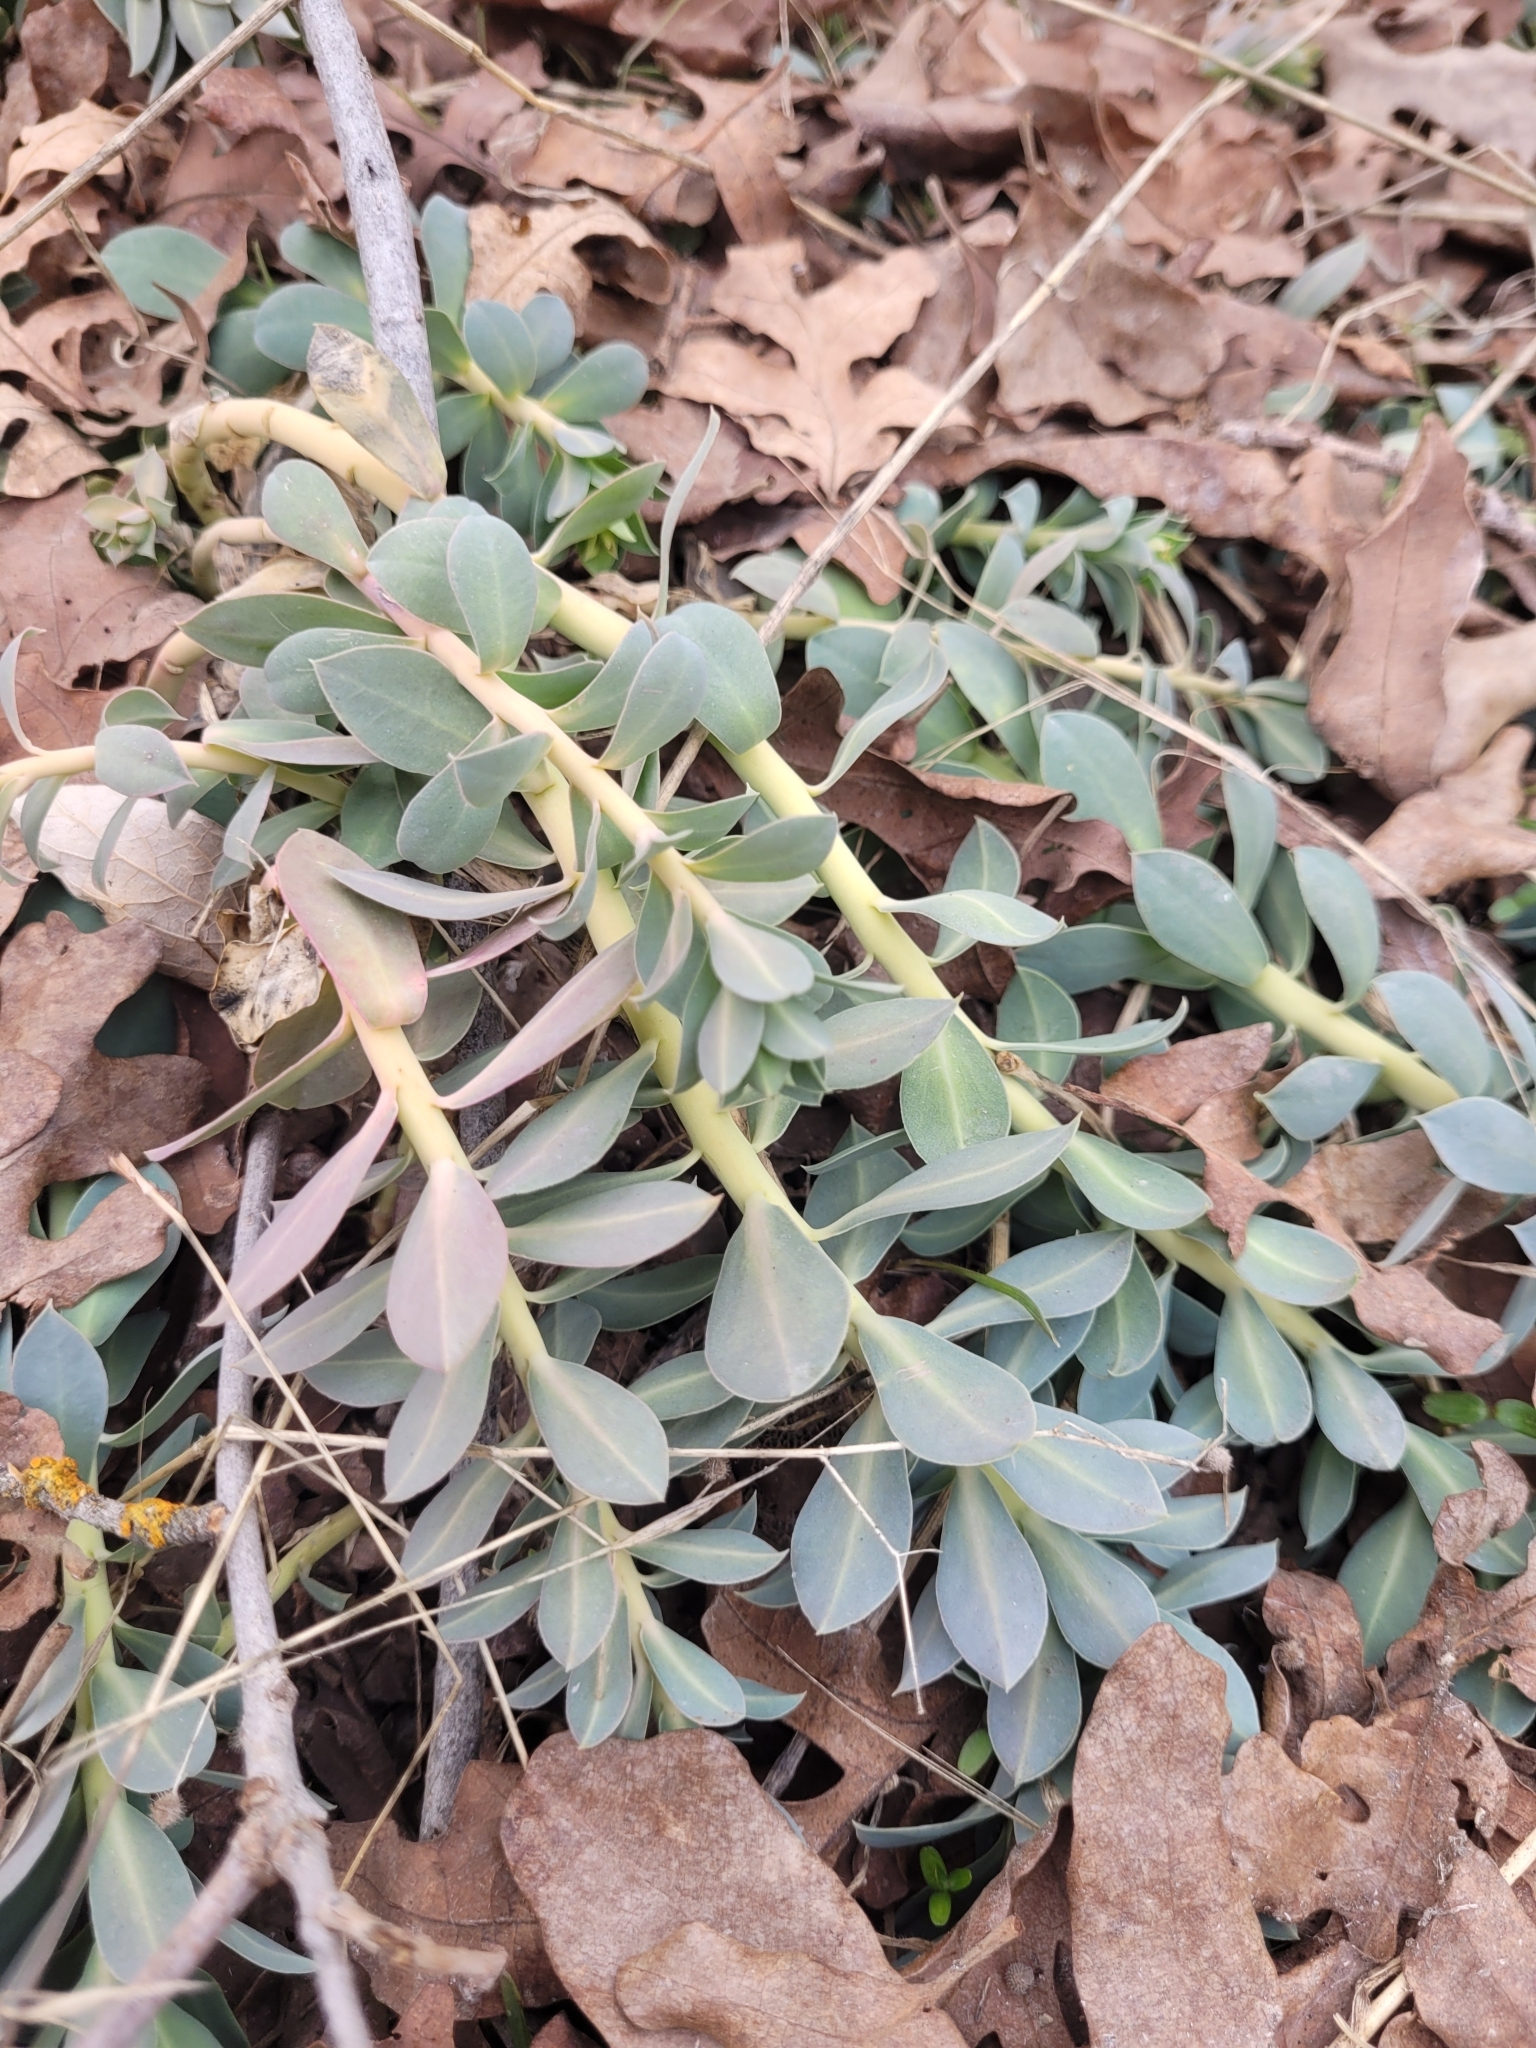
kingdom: Plantae
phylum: Tracheophyta
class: Magnoliopsida
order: Malpighiales
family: Euphorbiaceae
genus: Euphorbia
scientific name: Euphorbia myrsinites
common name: Myrtle spurge
